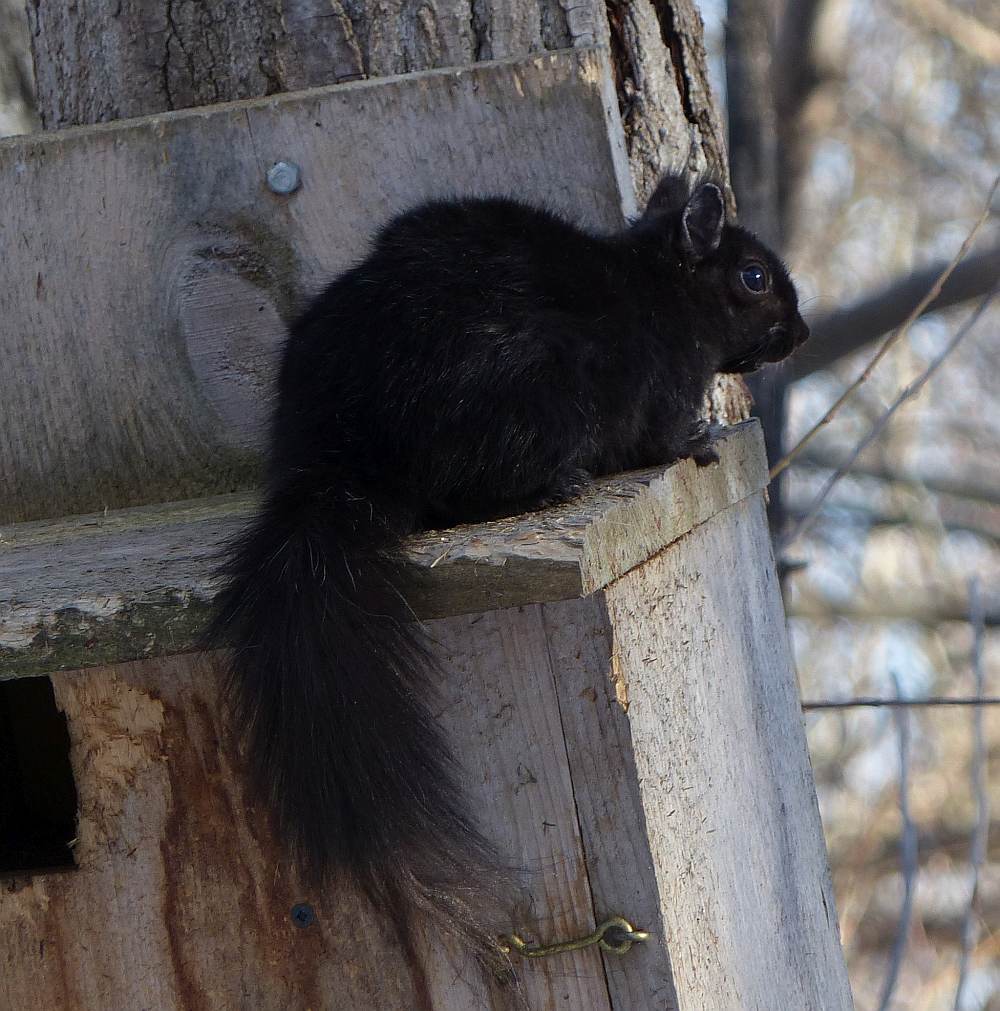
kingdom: Animalia
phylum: Chordata
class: Mammalia
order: Rodentia
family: Sciuridae
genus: Sciurus
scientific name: Sciurus carolinensis
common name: Eastern gray squirrel
